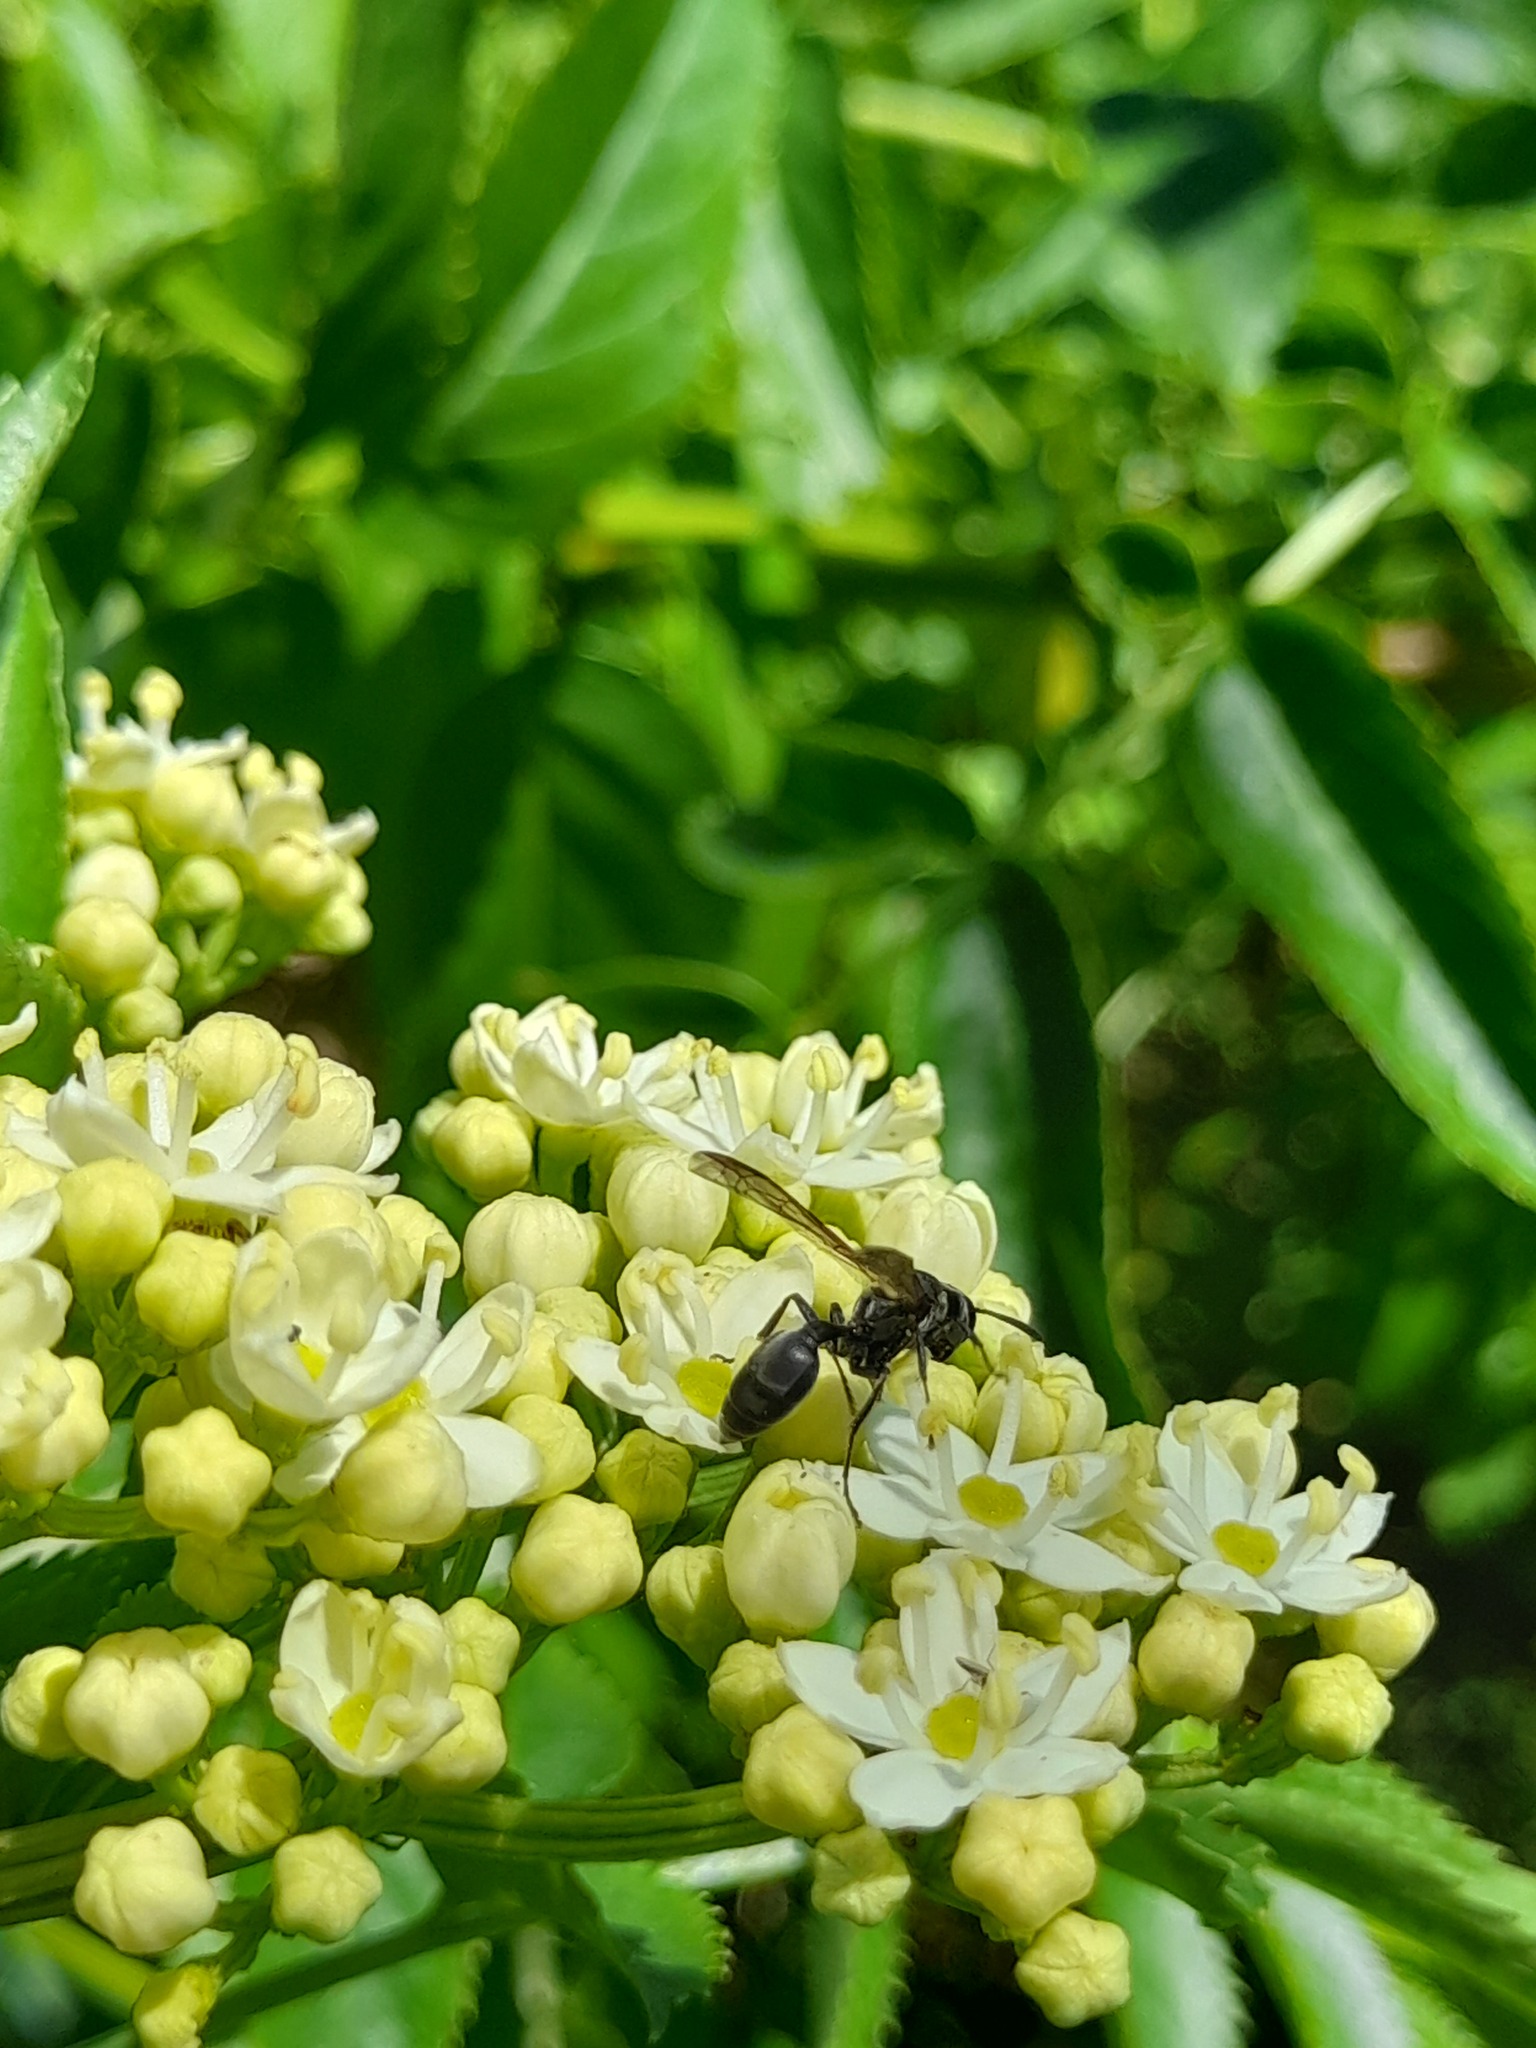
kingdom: Animalia
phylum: Arthropoda
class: Insecta
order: Hymenoptera
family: Eumenidae
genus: Polybia
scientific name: Polybia scutellaris
